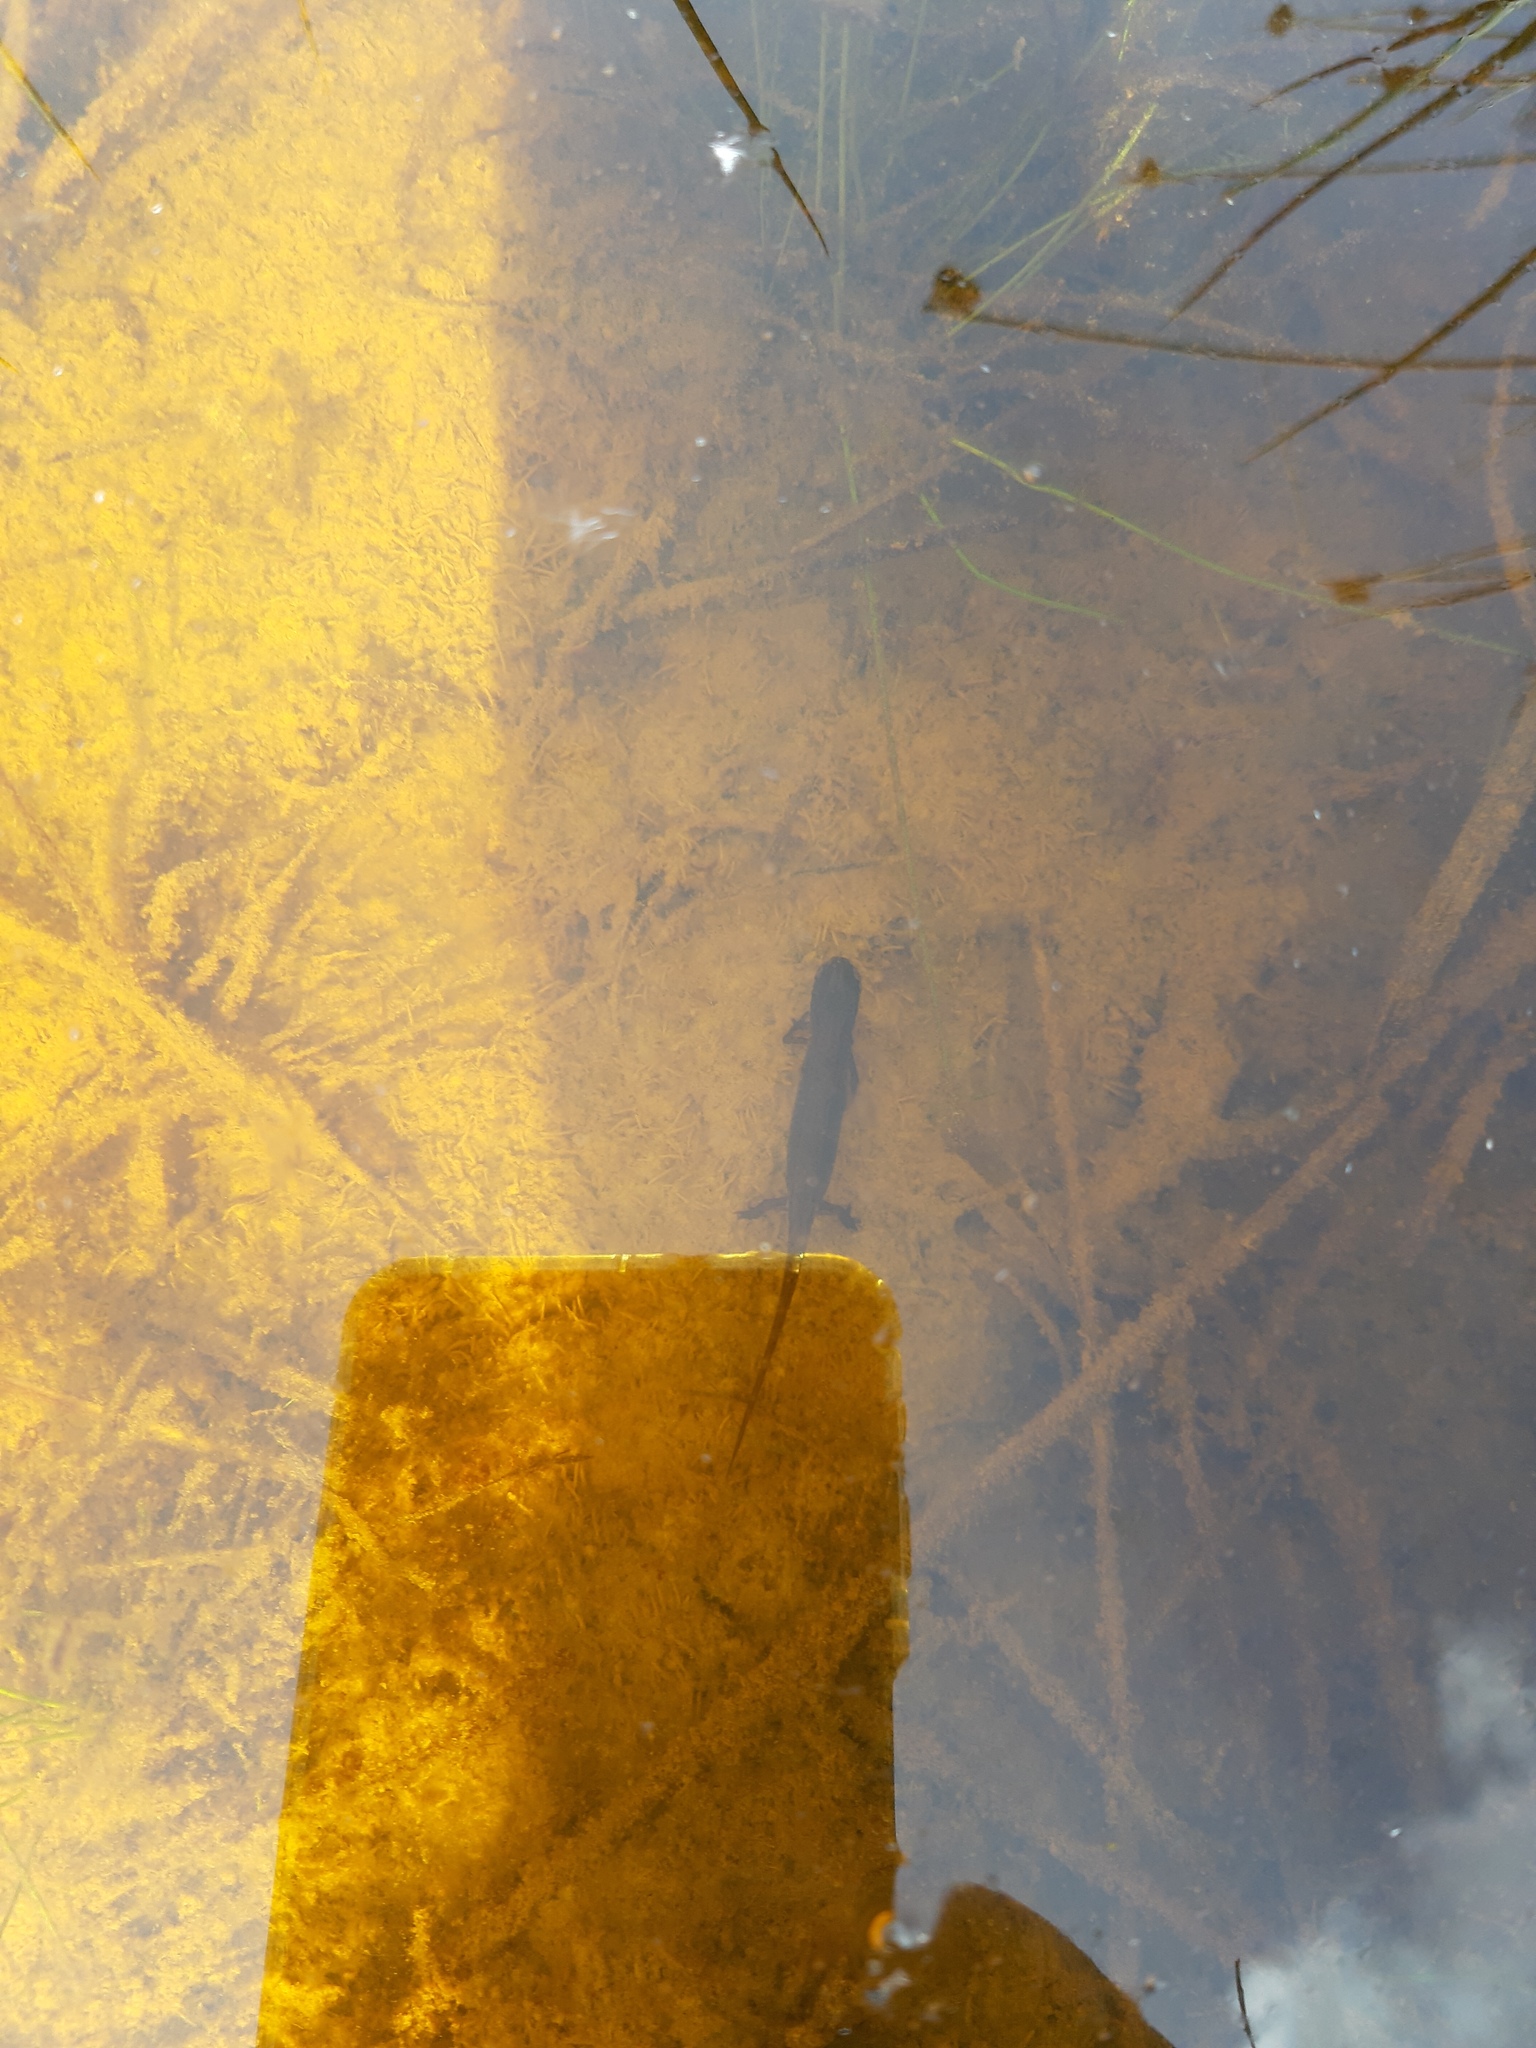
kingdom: Animalia
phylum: Chordata
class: Amphibia
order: Caudata
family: Salamandridae
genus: Lissotriton
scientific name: Lissotriton vulgaris
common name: Smooth newt
